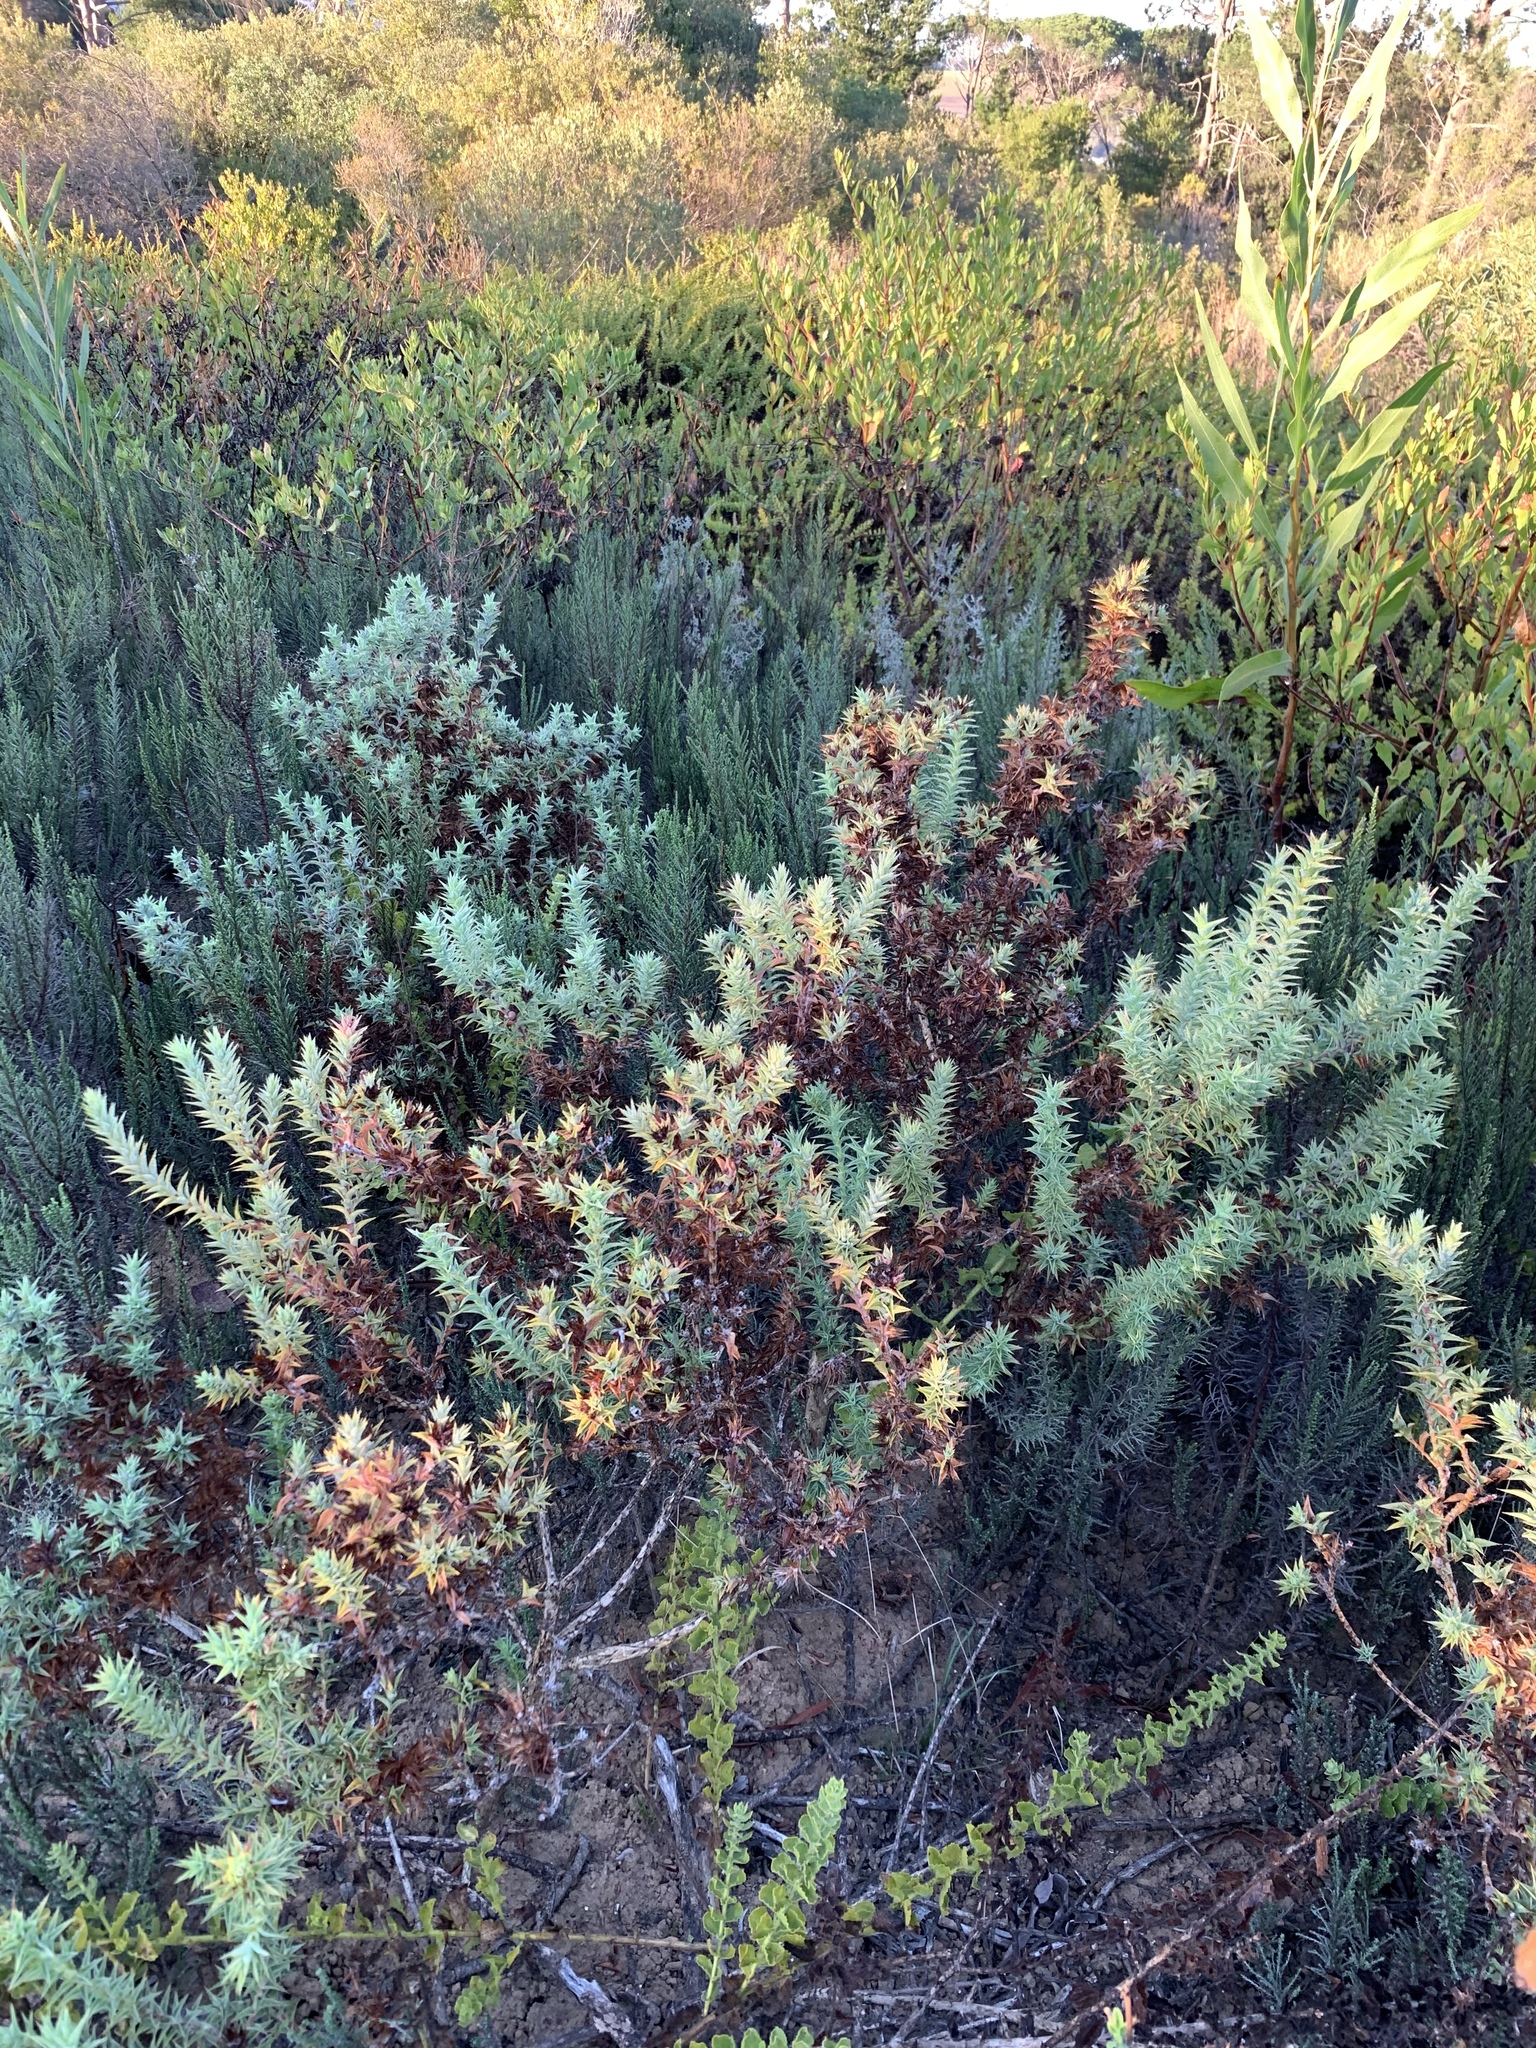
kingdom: Plantae
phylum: Tracheophyta
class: Magnoliopsida
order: Fabales
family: Fabaceae
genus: Aspalathus
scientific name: Aspalathus cordata
